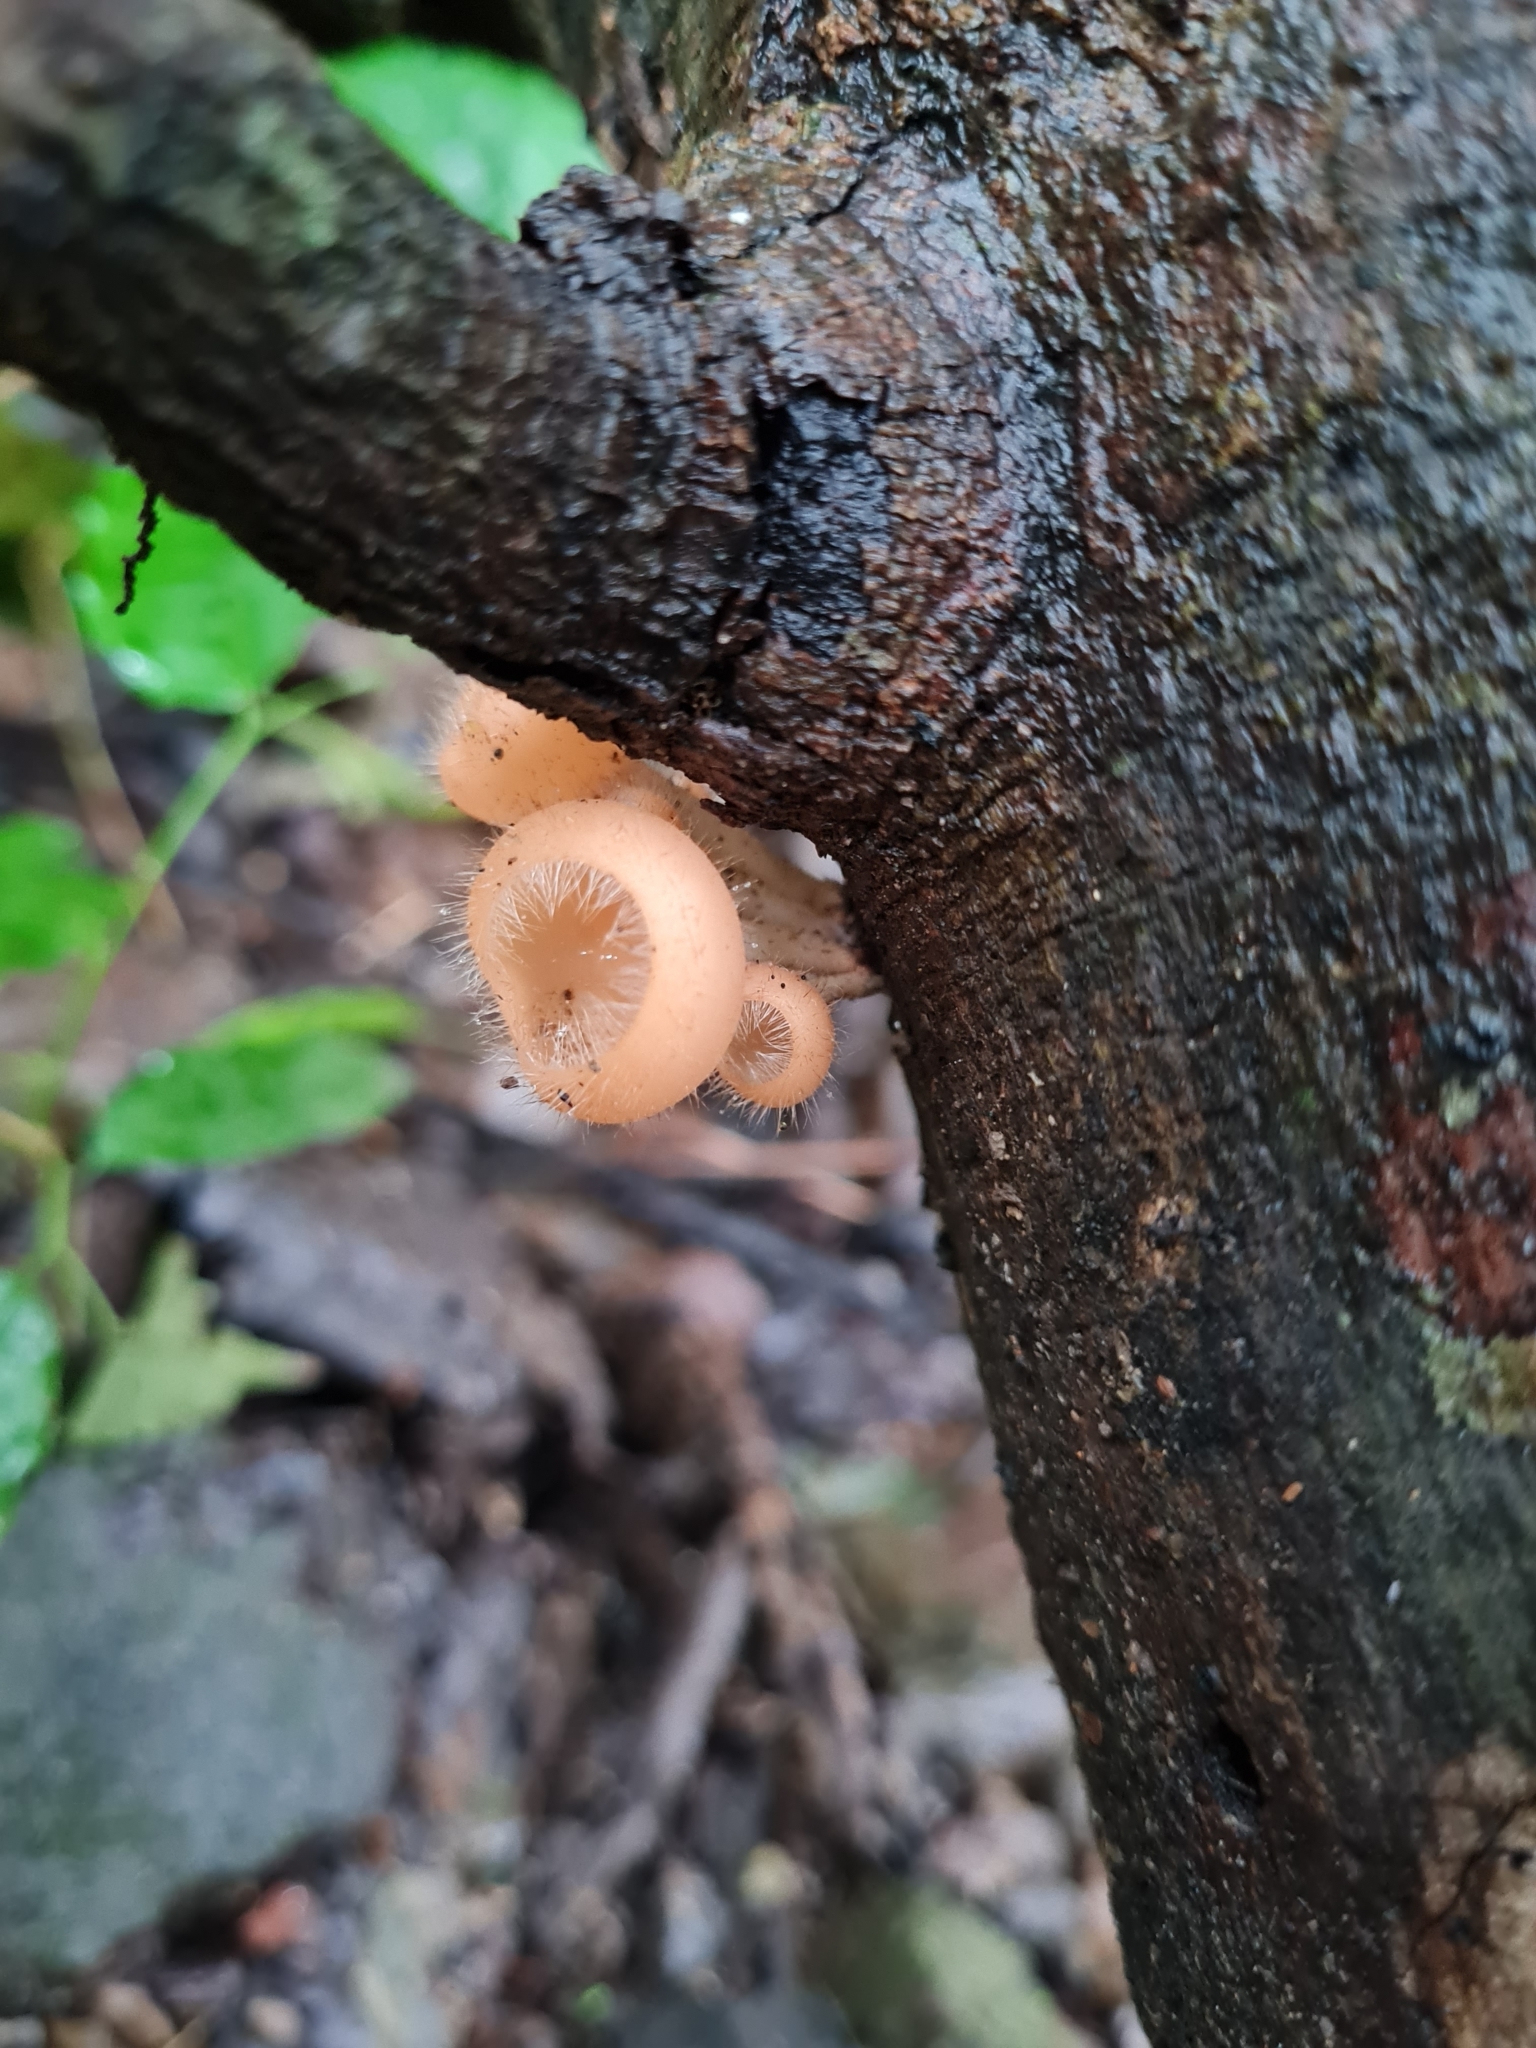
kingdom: Fungi
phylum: Ascomycota
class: Pezizomycetes
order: Pezizales
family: Sarcoscyphaceae
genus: Cookeina
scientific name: Cookeina tricholoma
